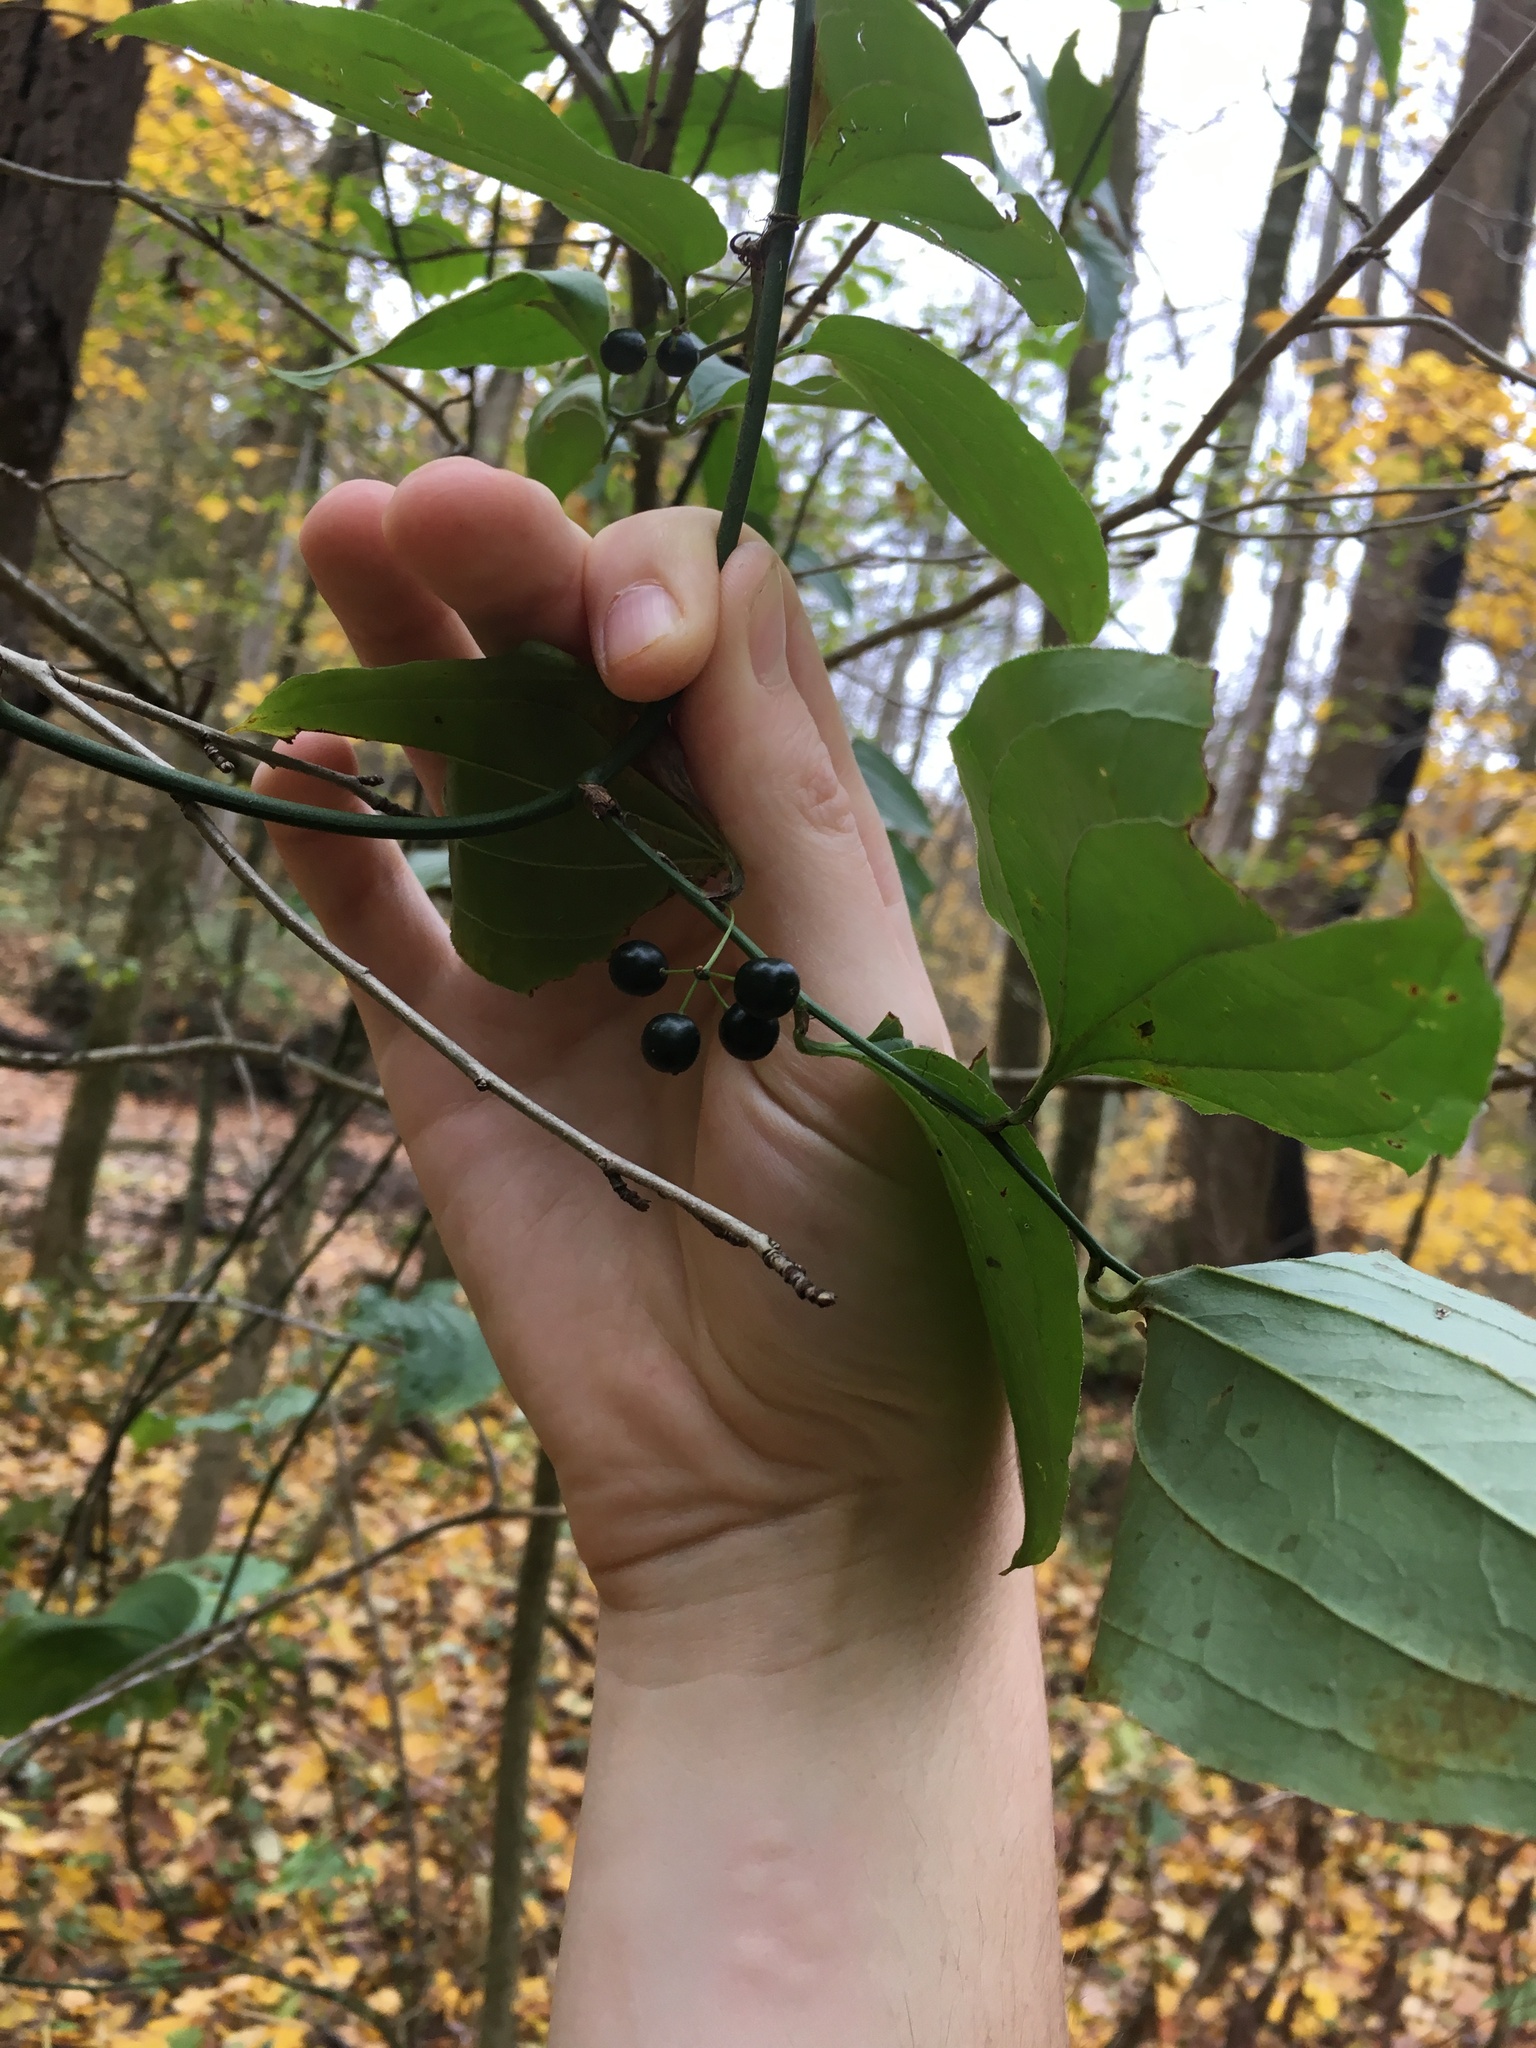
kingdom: Plantae
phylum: Tracheophyta
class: Liliopsida
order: Liliales
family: Smilacaceae
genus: Smilax
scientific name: Smilax tamnoides
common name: Hellfetter
